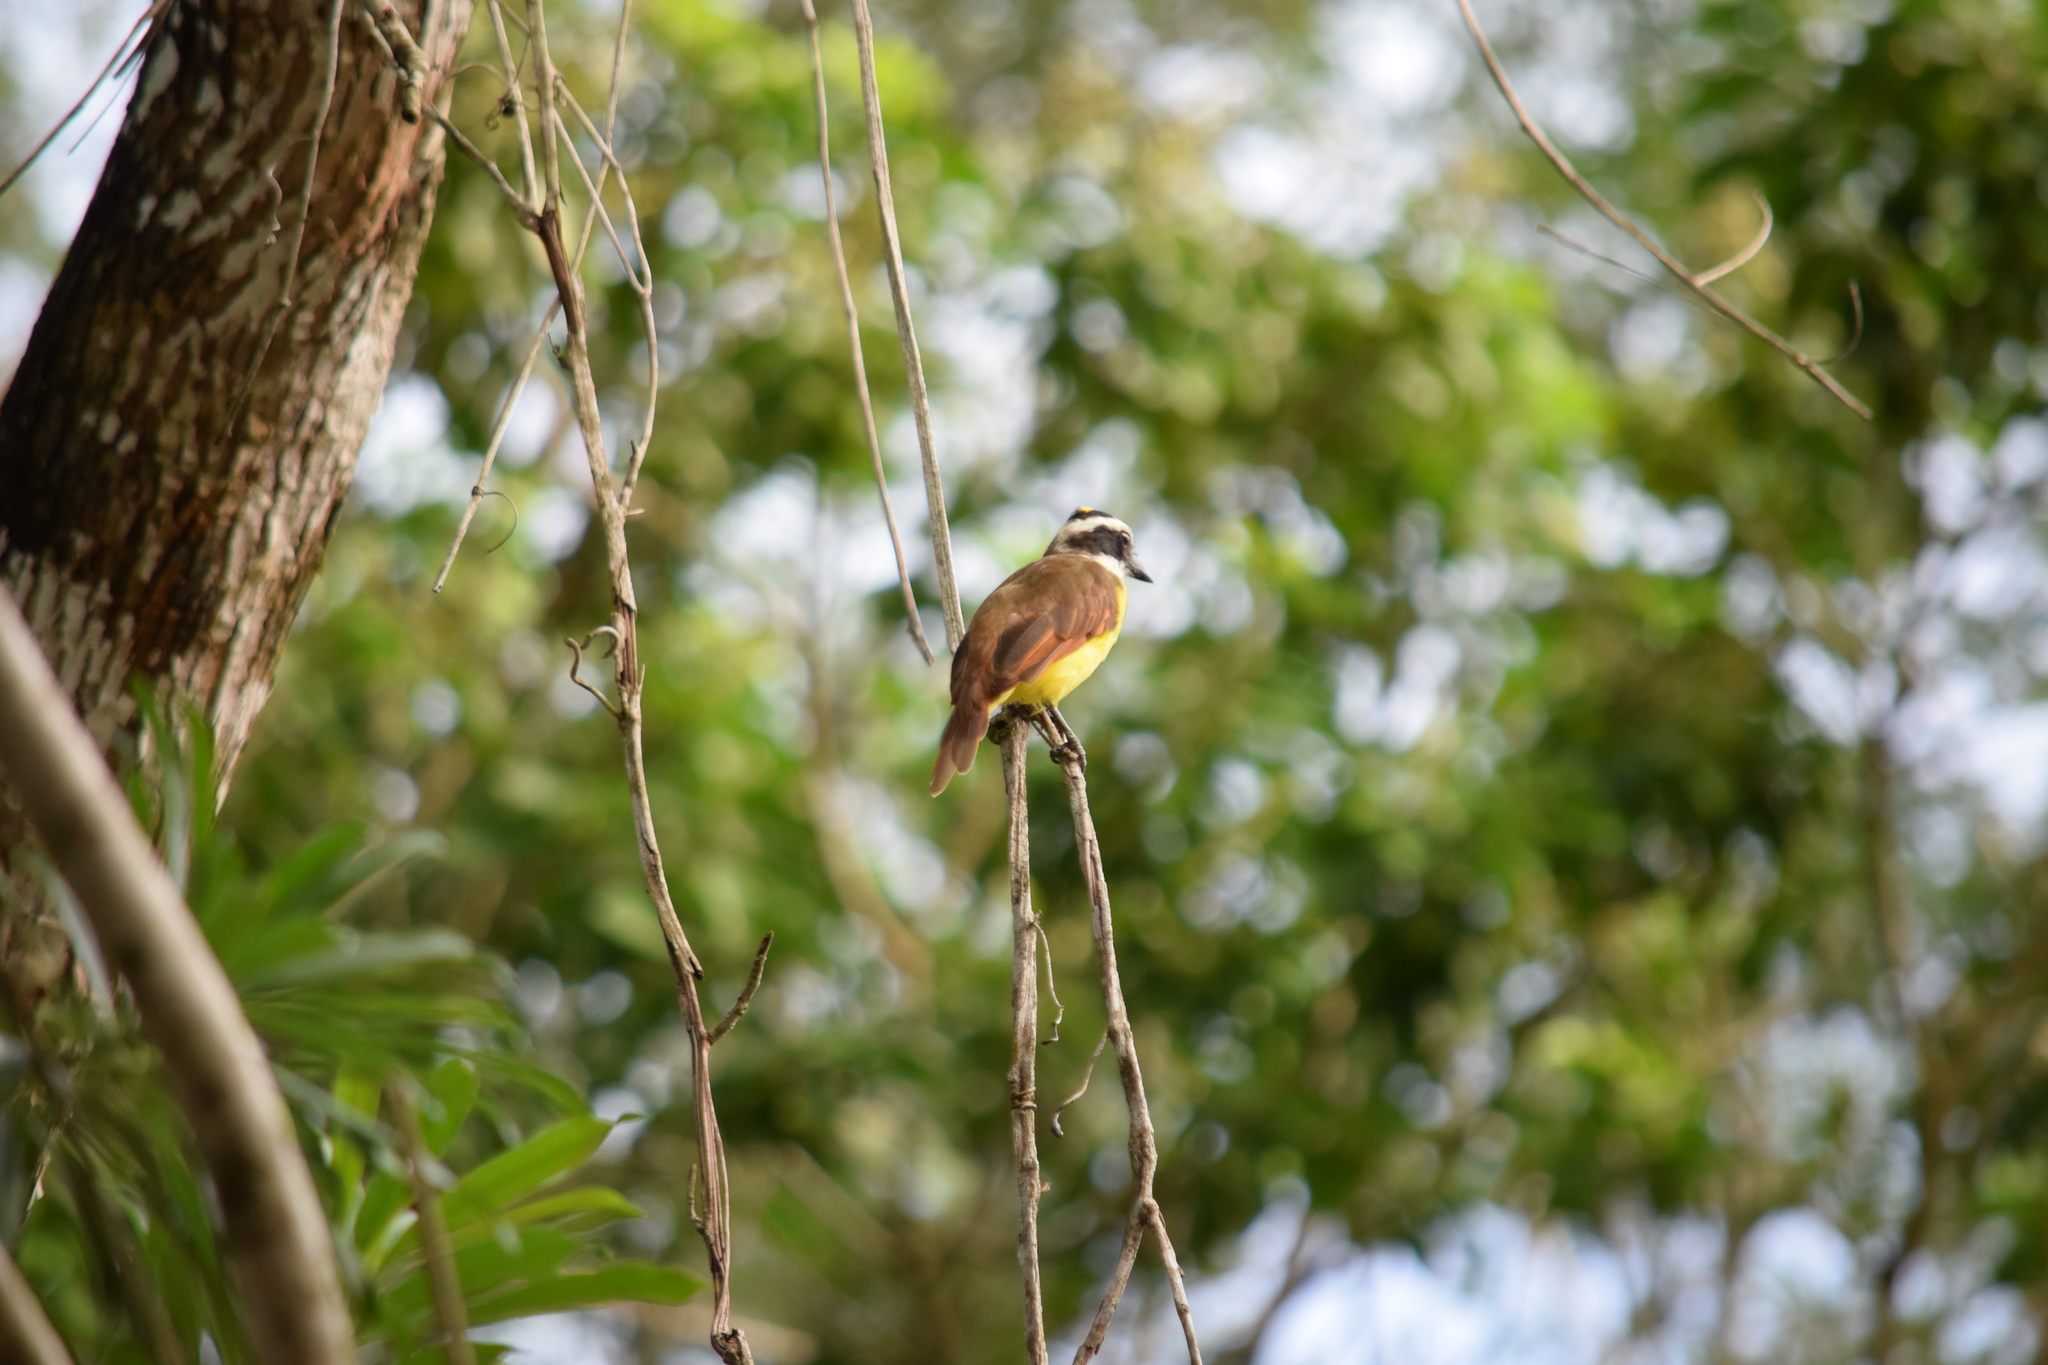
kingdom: Animalia
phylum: Chordata
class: Aves
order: Passeriformes
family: Tyrannidae
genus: Pitangus
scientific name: Pitangus sulphuratus
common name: Great kiskadee
